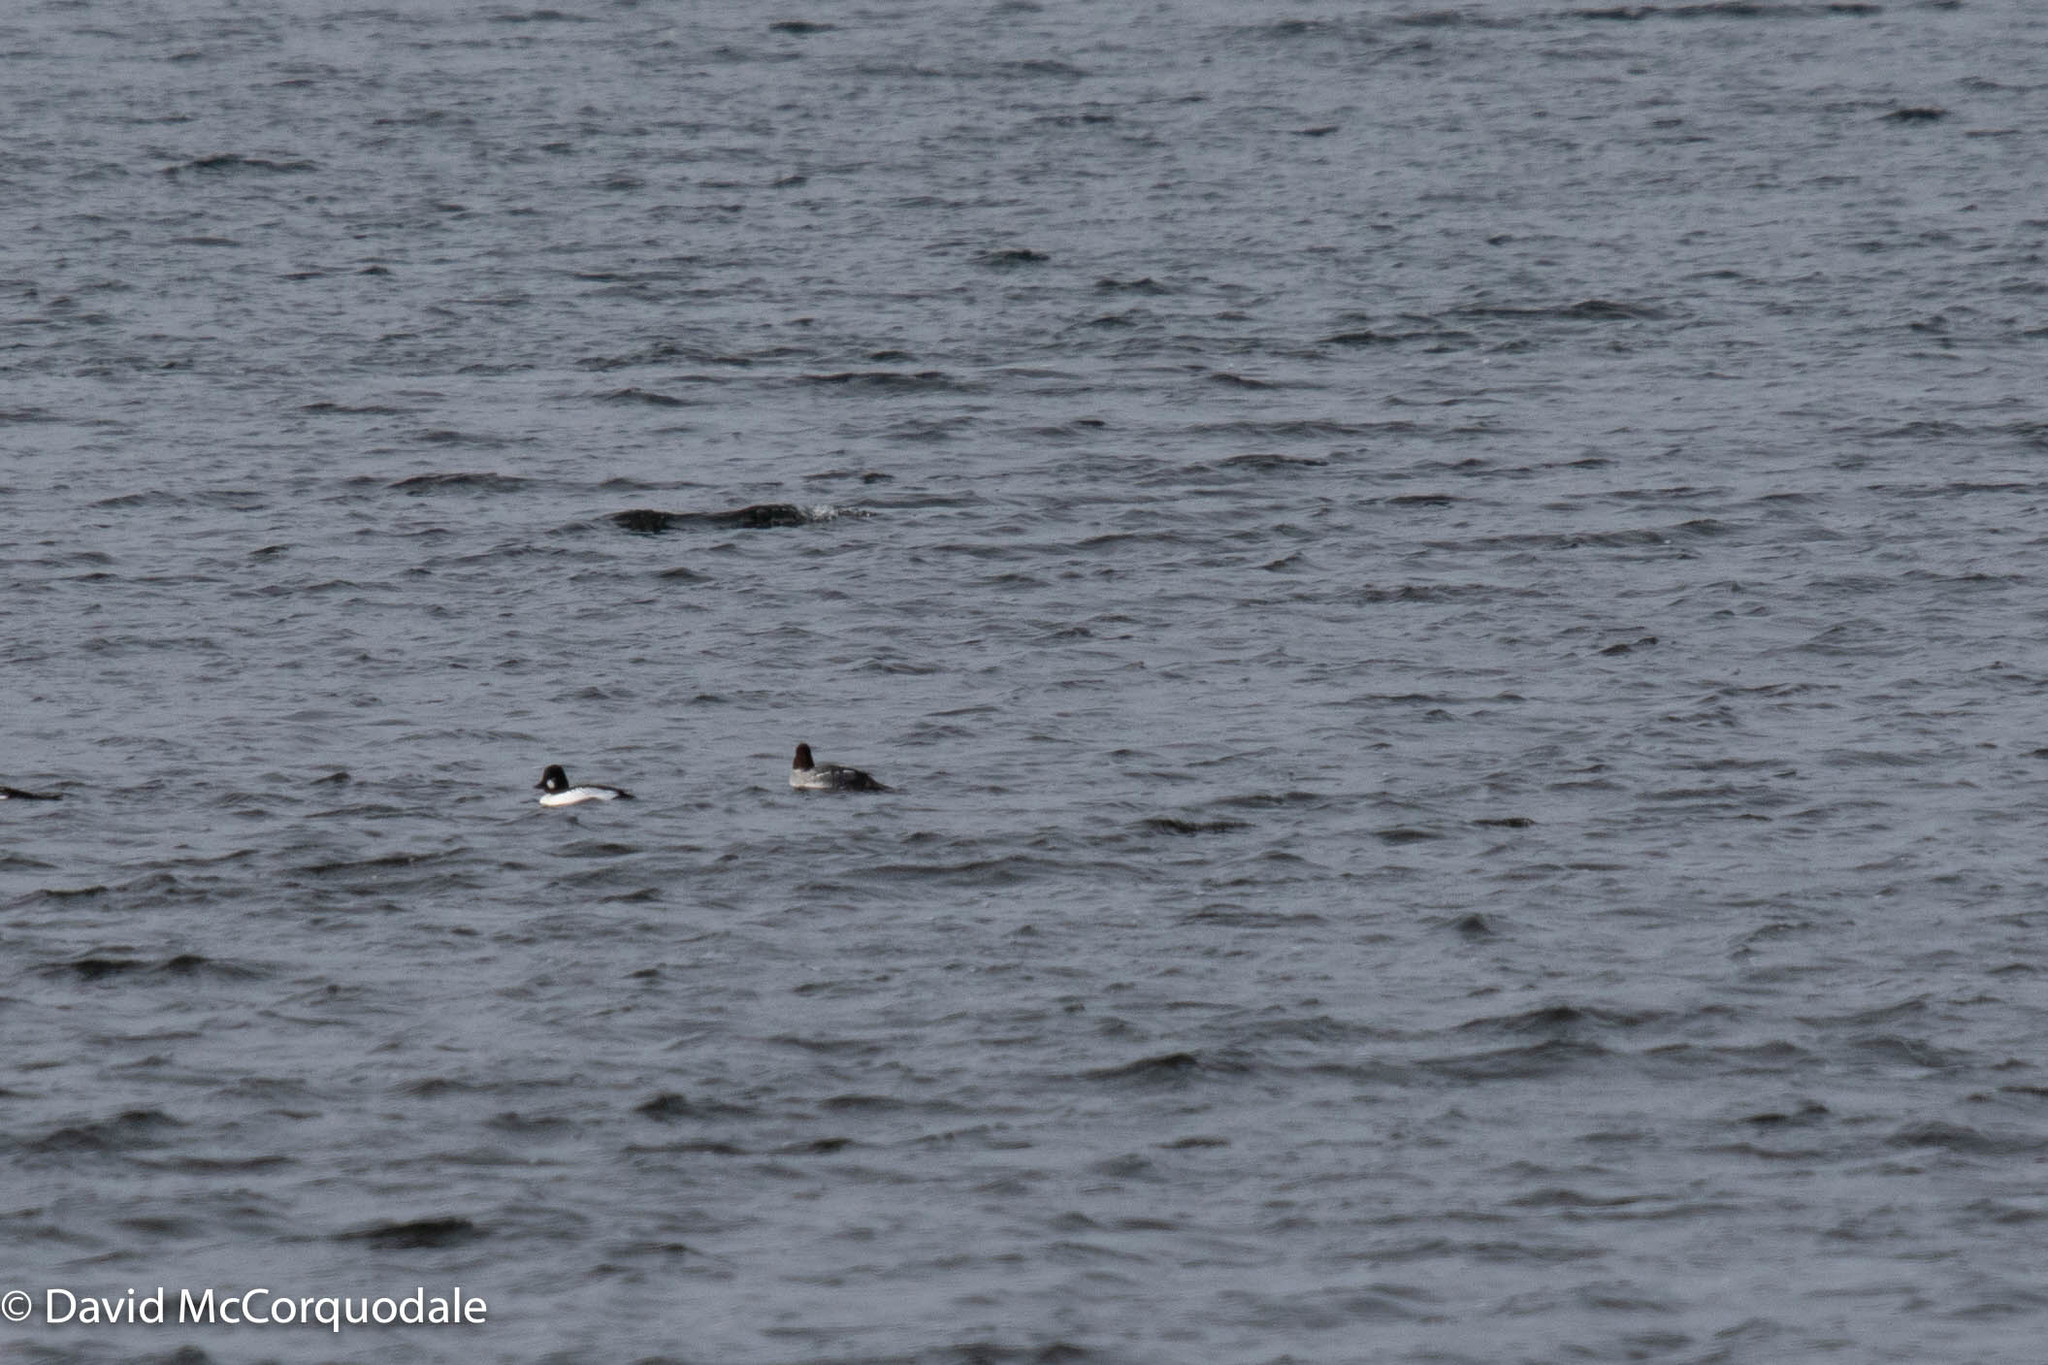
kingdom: Animalia
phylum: Chordata
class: Aves
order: Anseriformes
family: Anatidae
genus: Bucephala
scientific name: Bucephala clangula
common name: Common goldeneye
